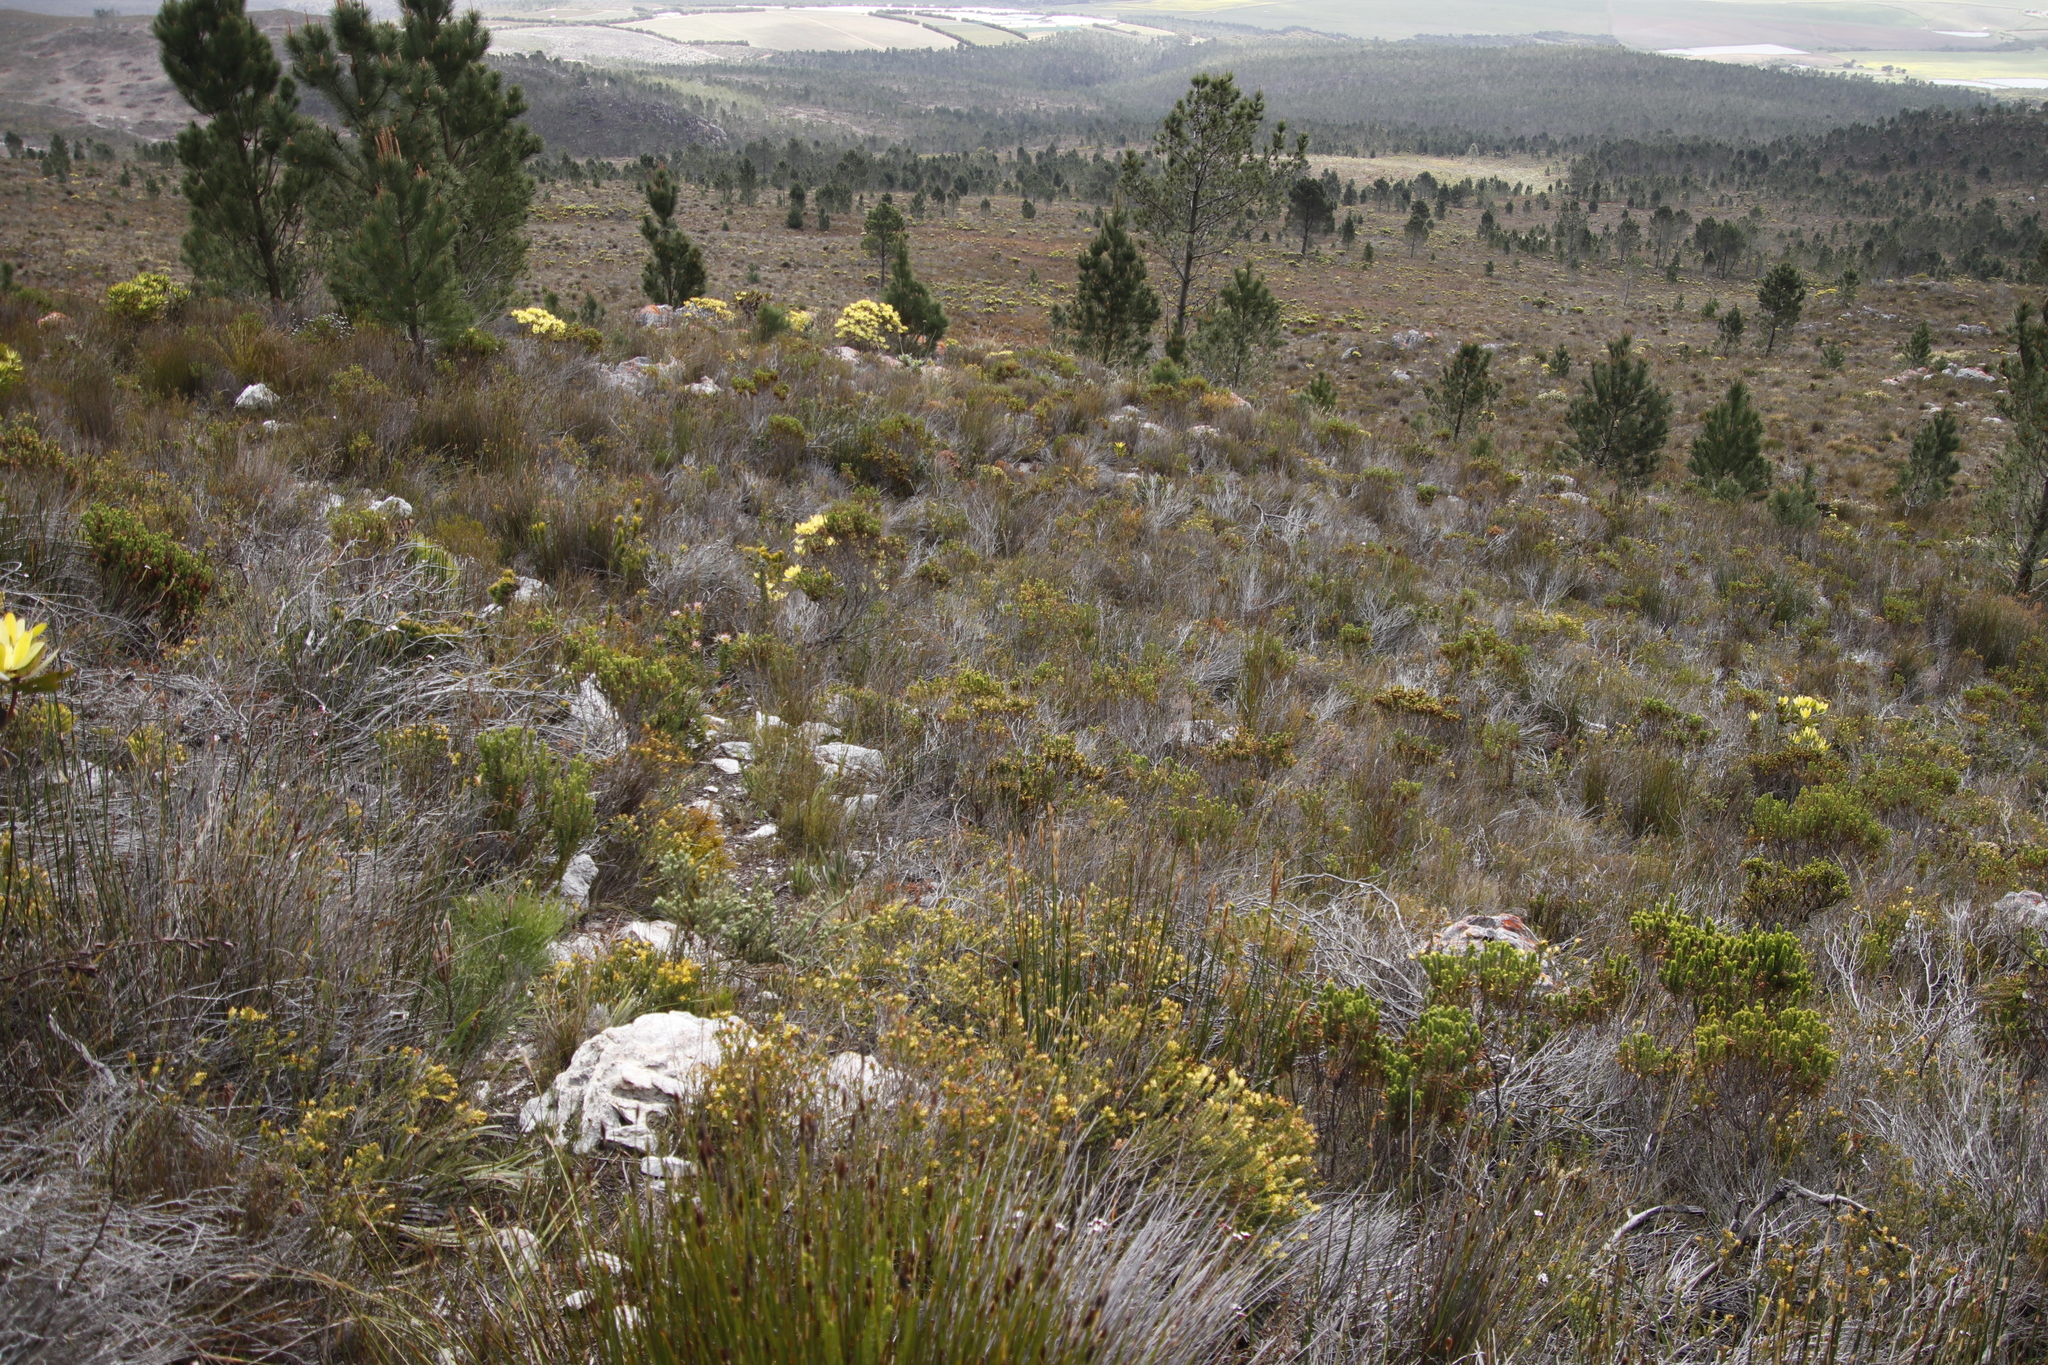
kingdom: Plantae
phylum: Tracheophyta
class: Pinopsida
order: Pinales
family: Pinaceae
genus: Pinus
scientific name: Pinus pinaster
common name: Maritime pine
